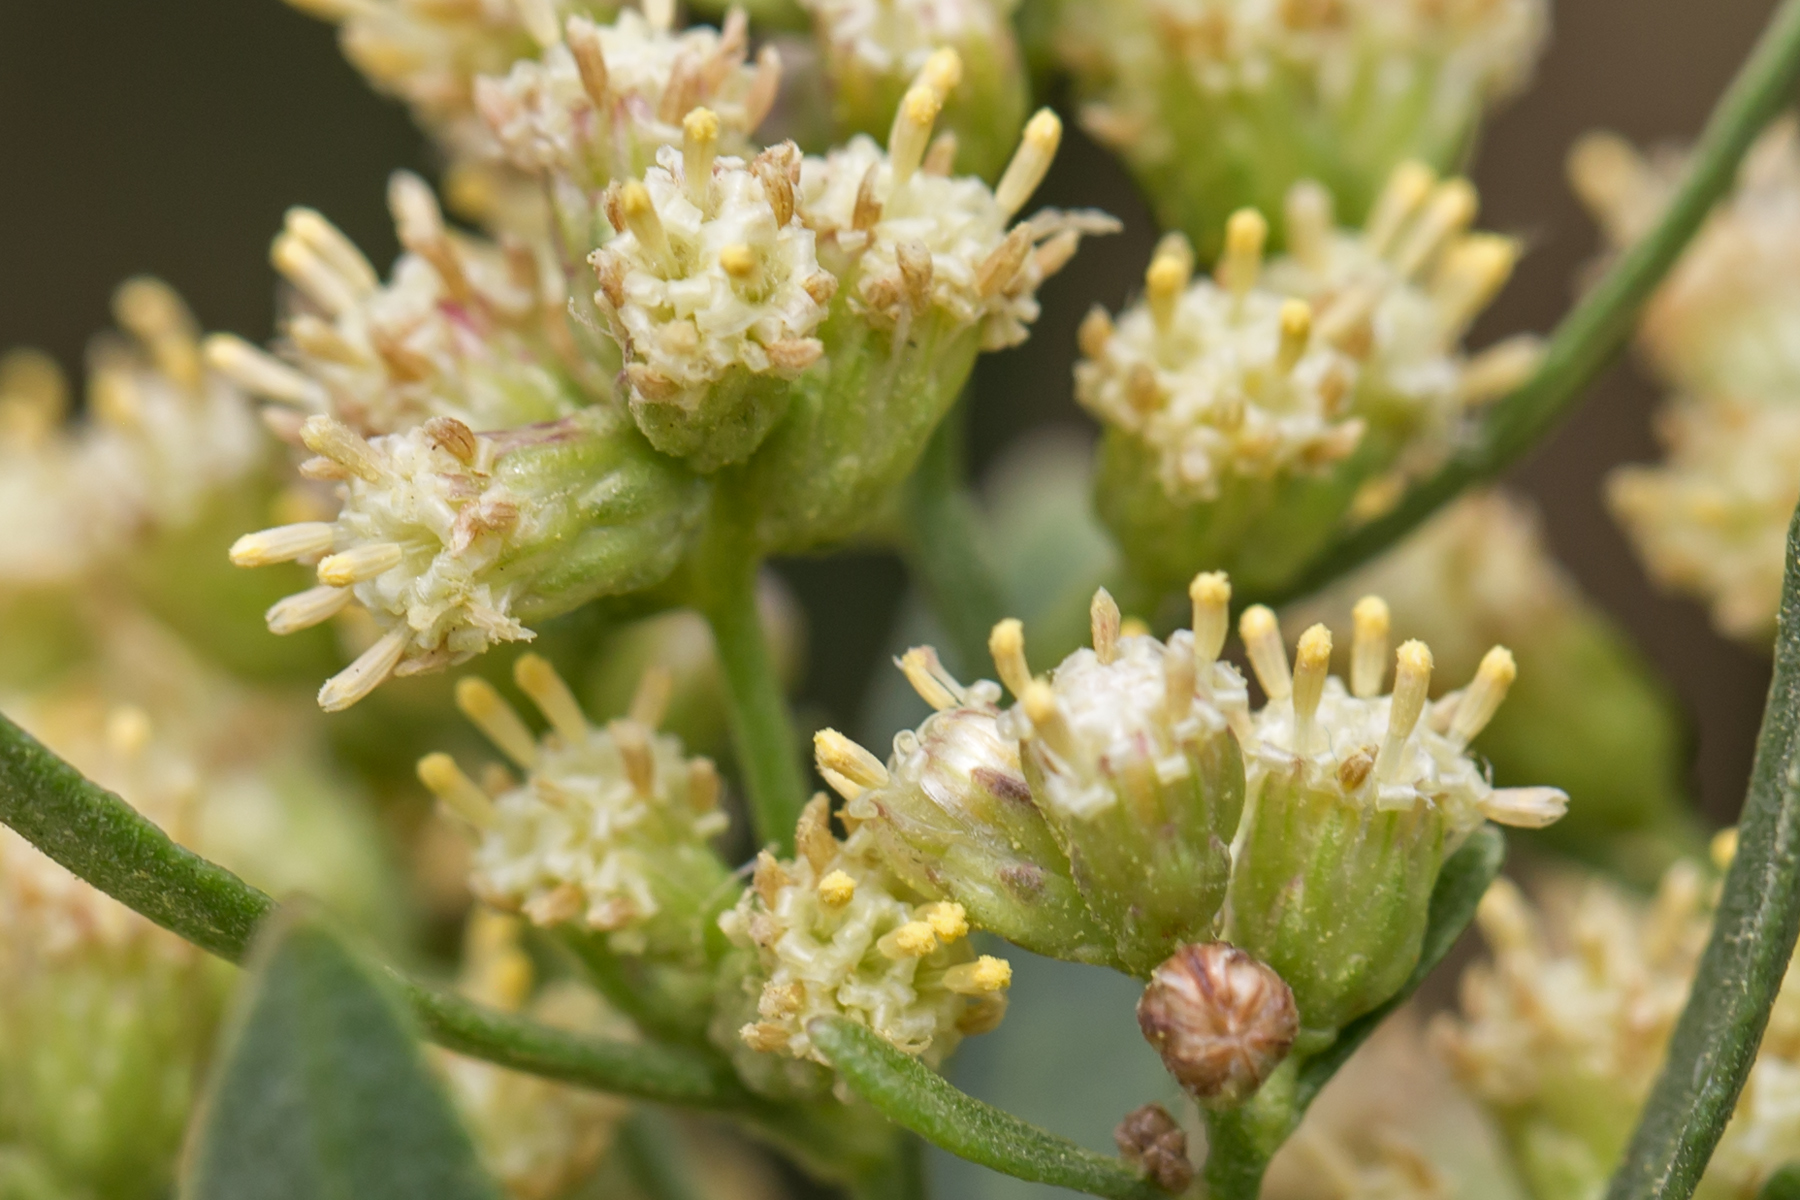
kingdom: Plantae
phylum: Tracheophyta
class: Magnoliopsida
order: Asterales
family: Asteraceae
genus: Baccharis
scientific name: Baccharis halimifolia
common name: Eastern baccharis
